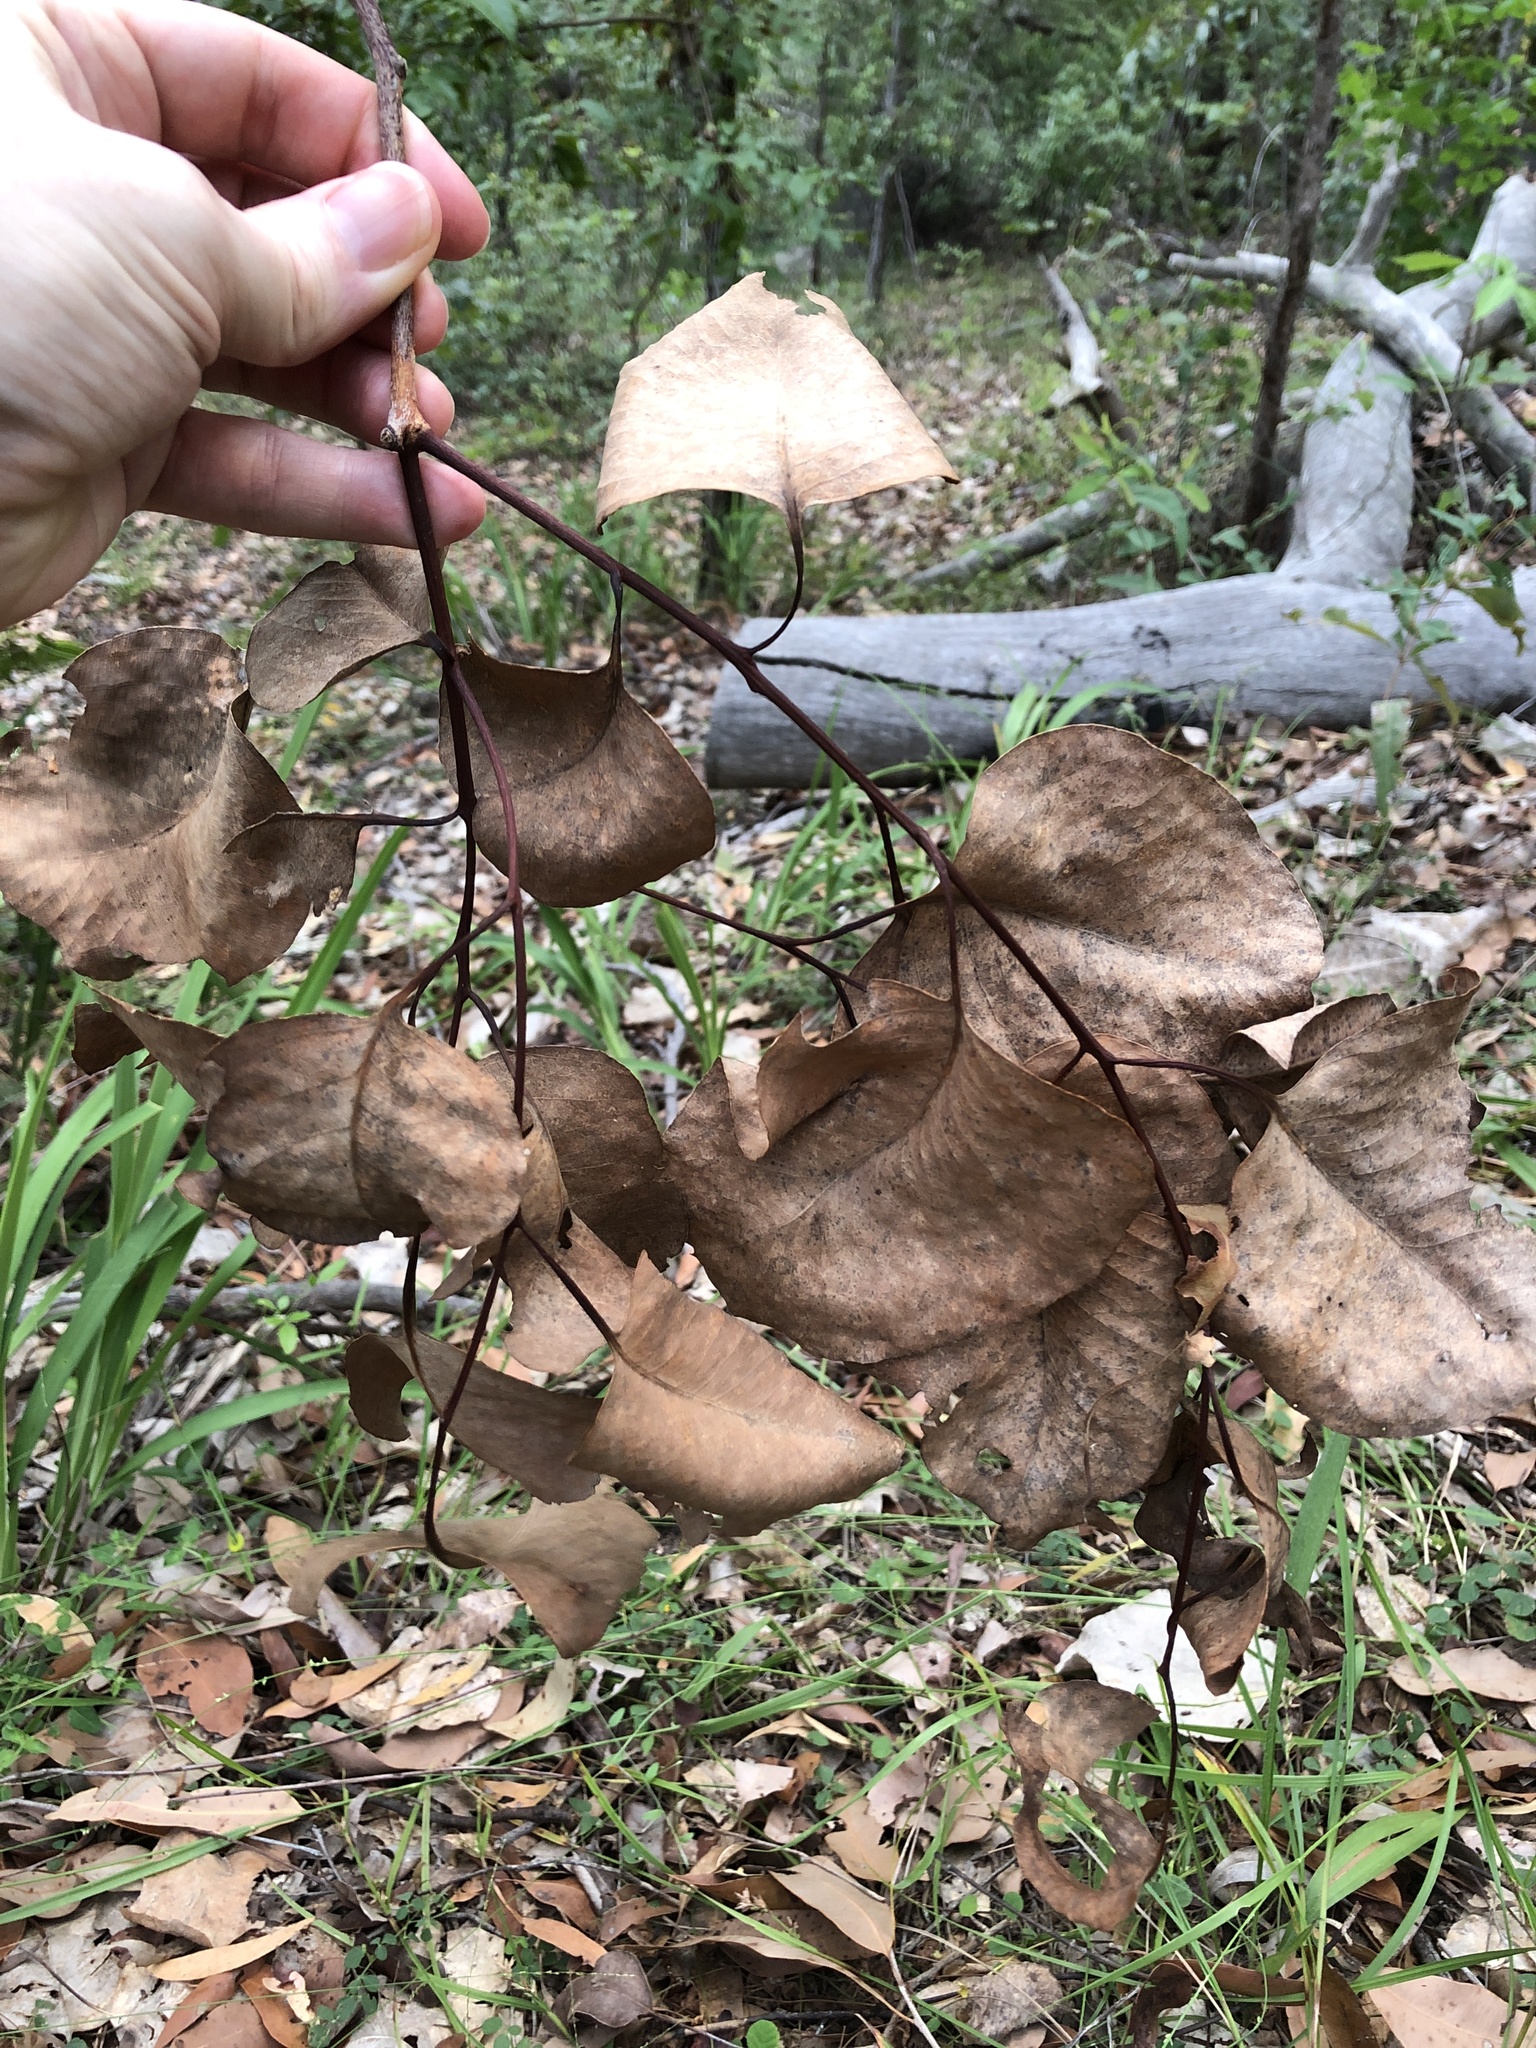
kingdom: Plantae
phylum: Tracheophyta
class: Magnoliopsida
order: Myrtales
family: Myrtaceae
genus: Eucalyptus
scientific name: Eucalyptus platyphylla
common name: Poplar-gum
